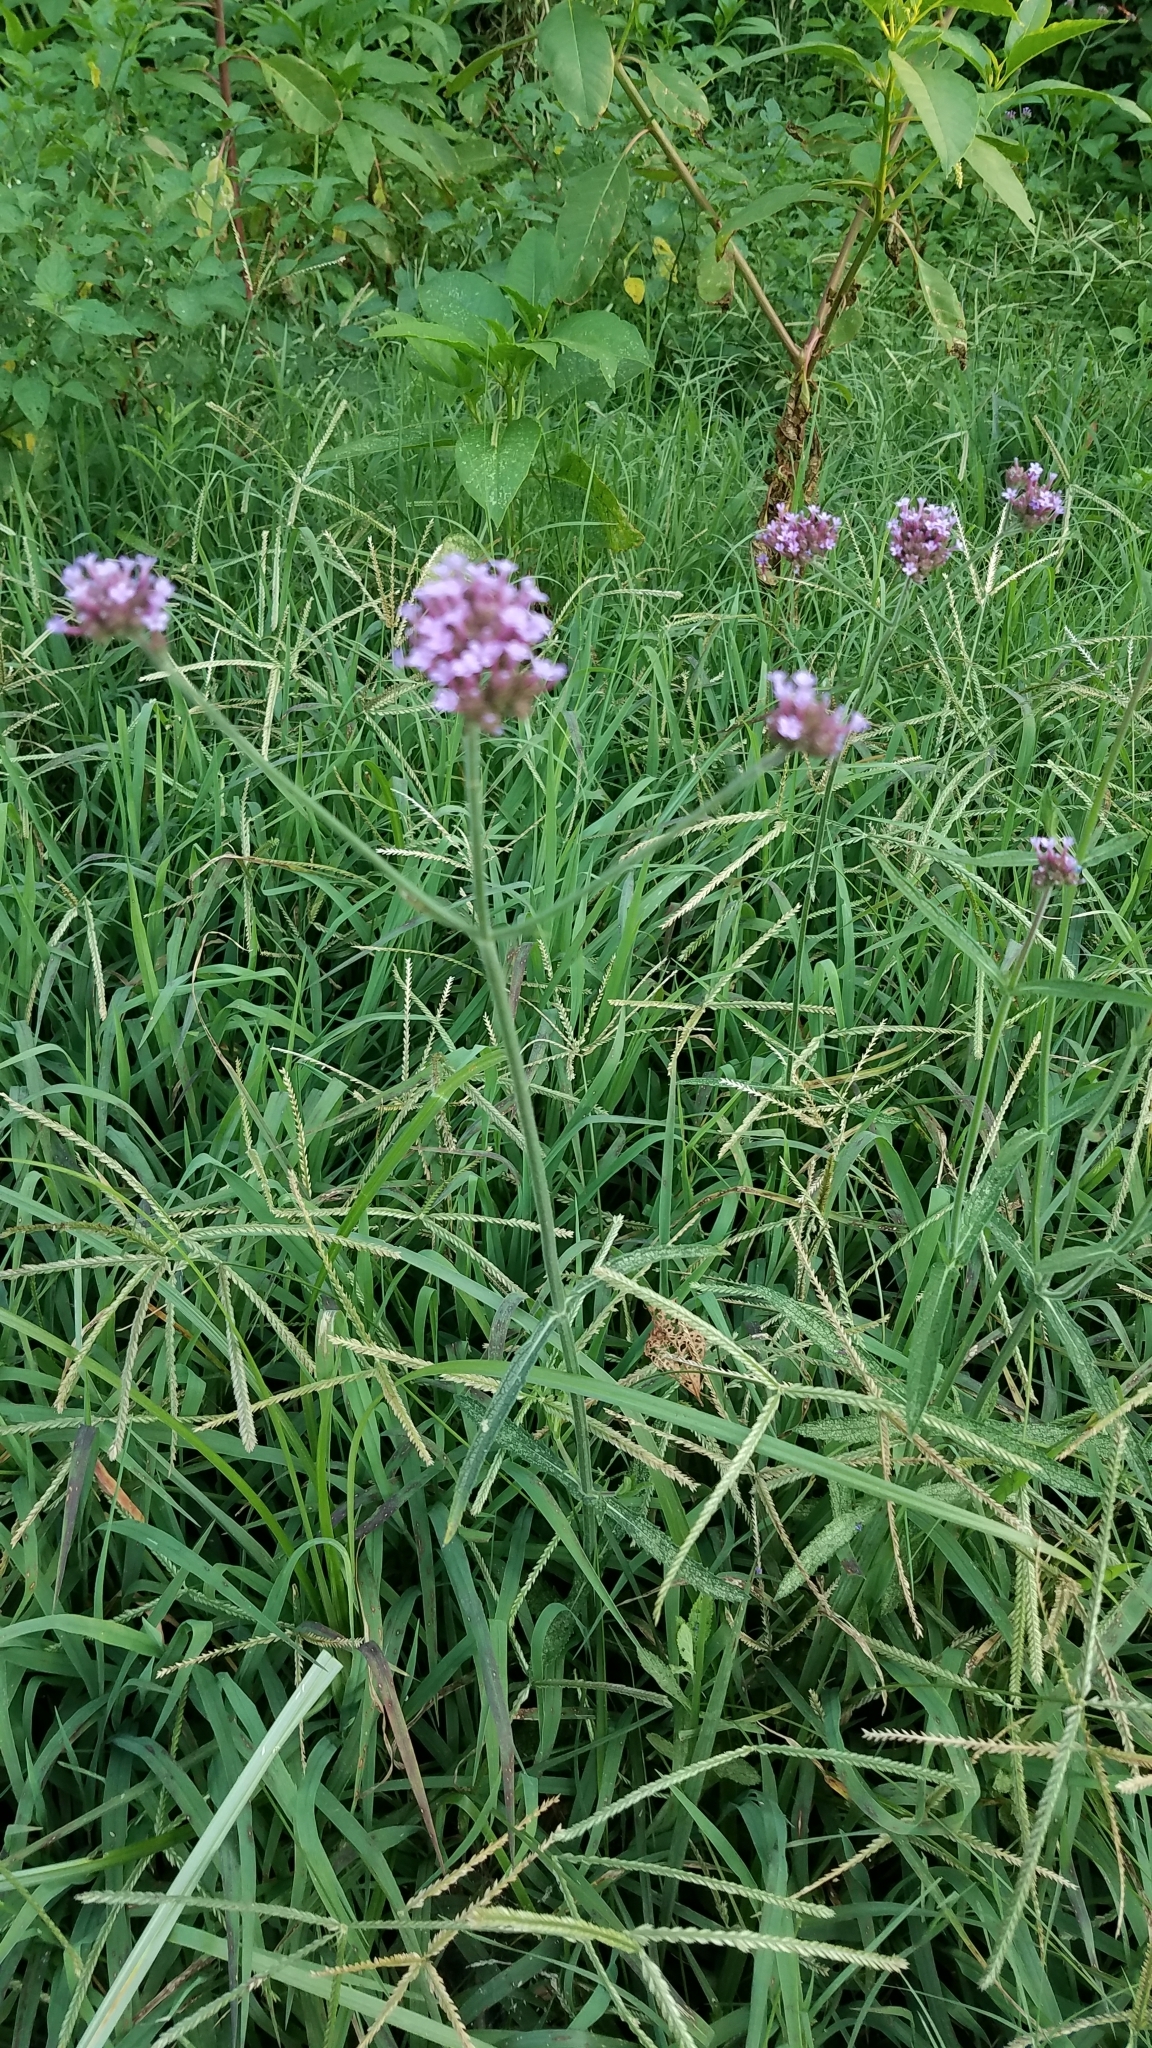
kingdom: Plantae
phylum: Tracheophyta
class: Magnoliopsida
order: Lamiales
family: Verbenaceae
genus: Verbena
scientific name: Verbena bonariensis
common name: Purpletop vervain
